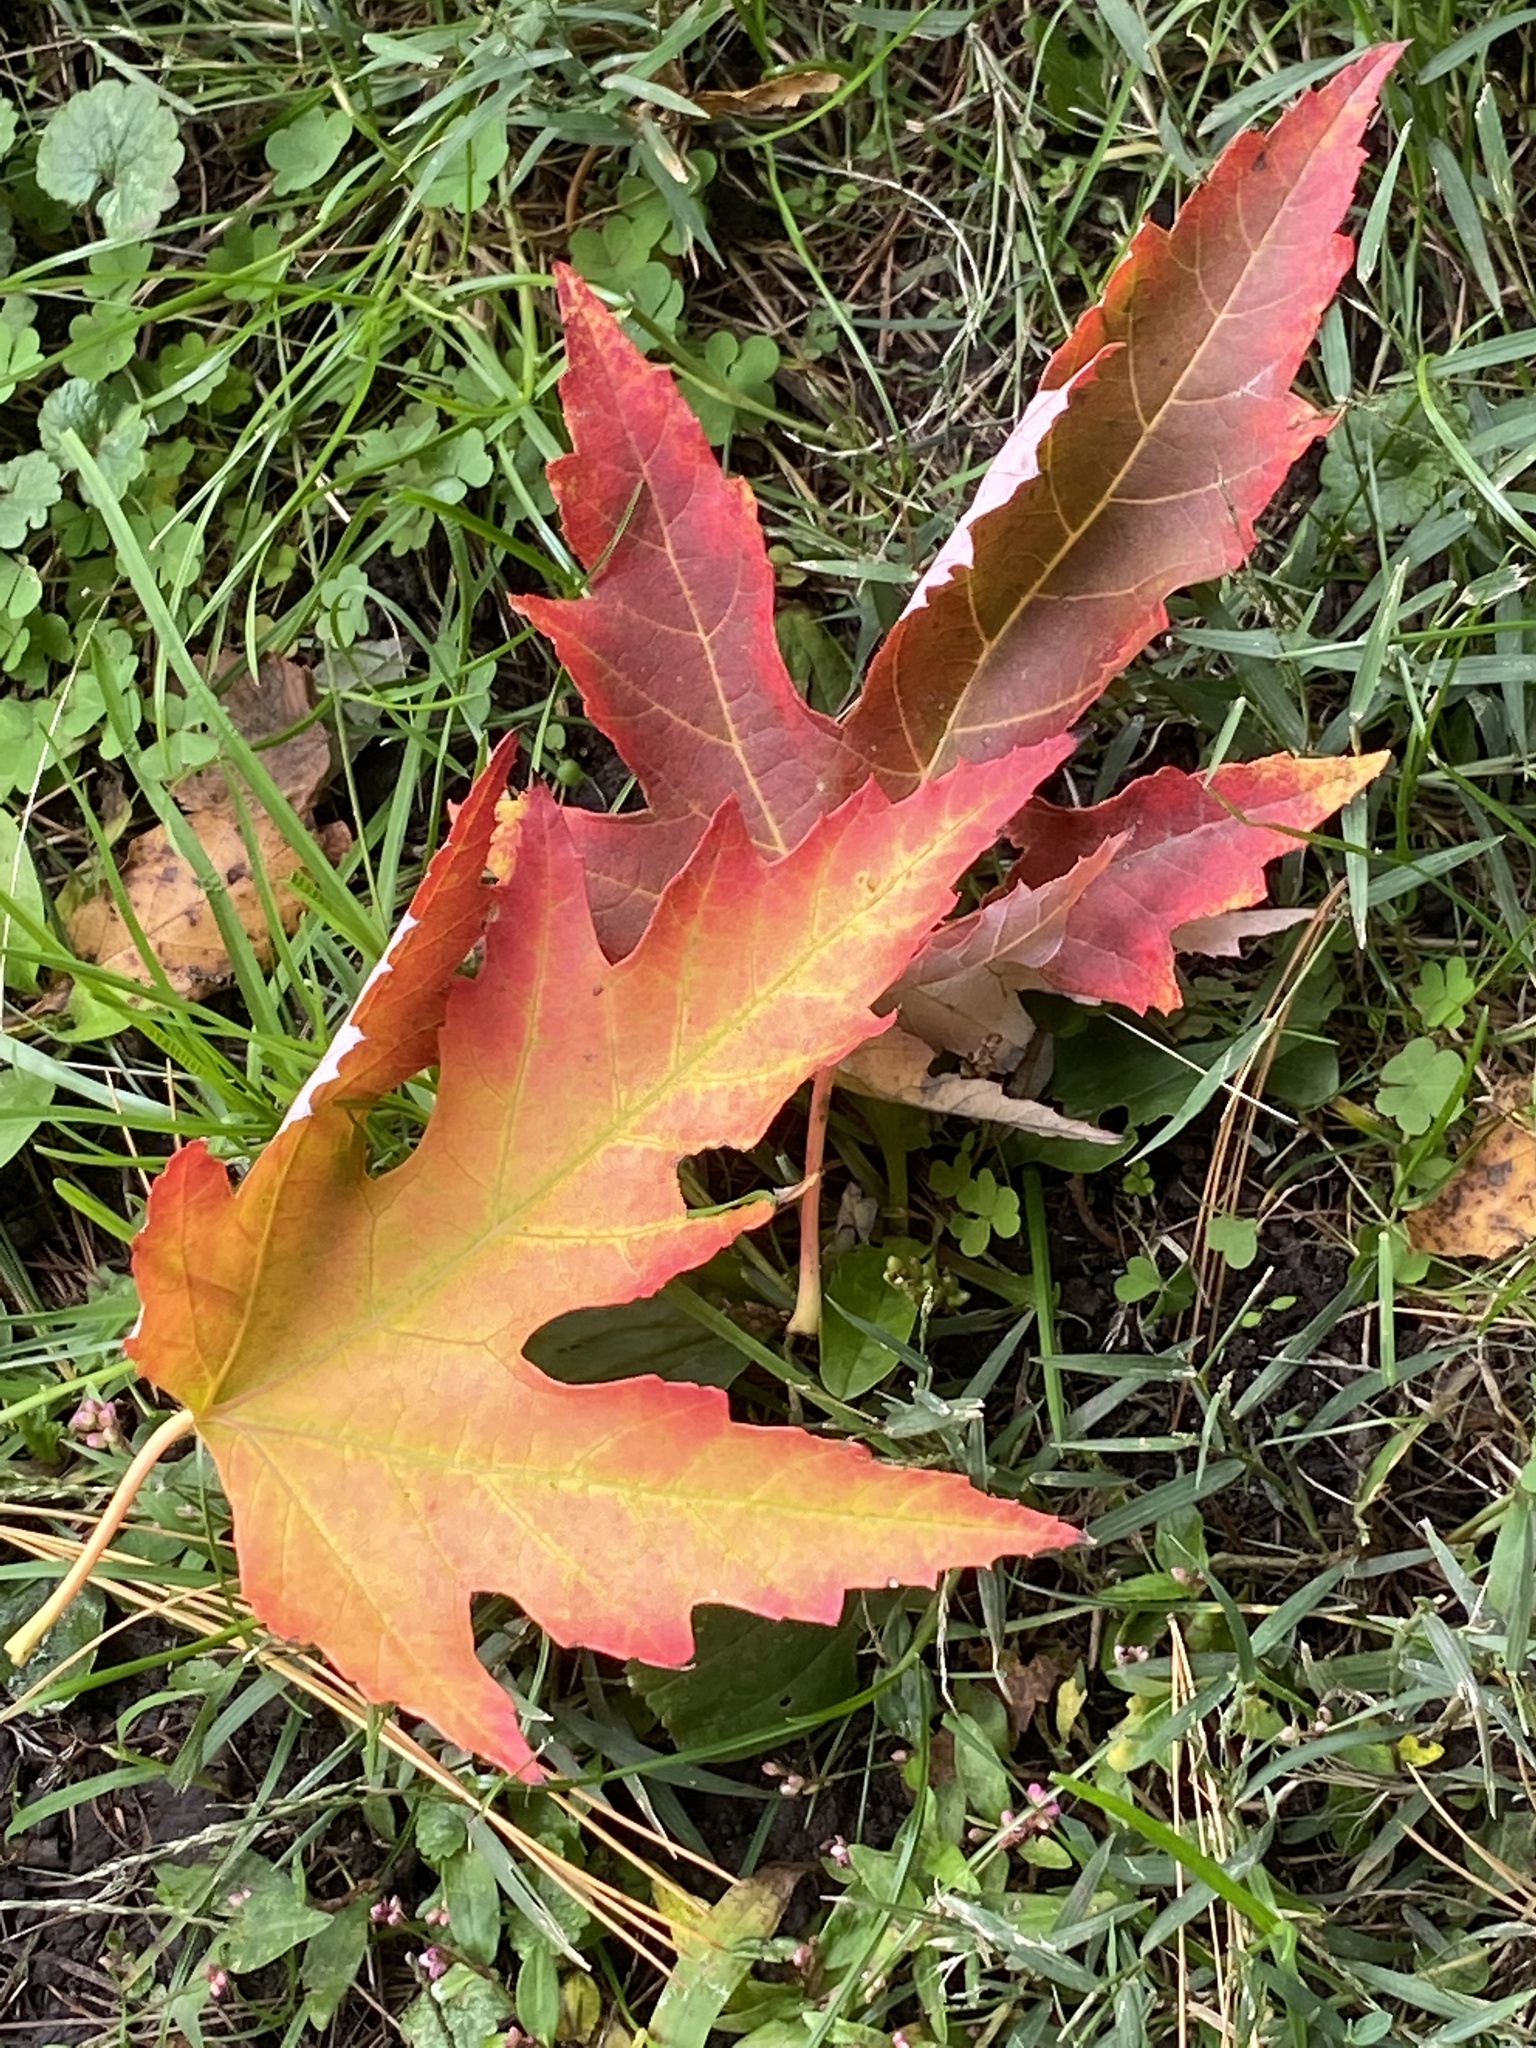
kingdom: Plantae
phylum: Tracheophyta
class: Magnoliopsida
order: Sapindales
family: Sapindaceae
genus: Acer
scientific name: Acer saccharinum
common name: Silver maple
